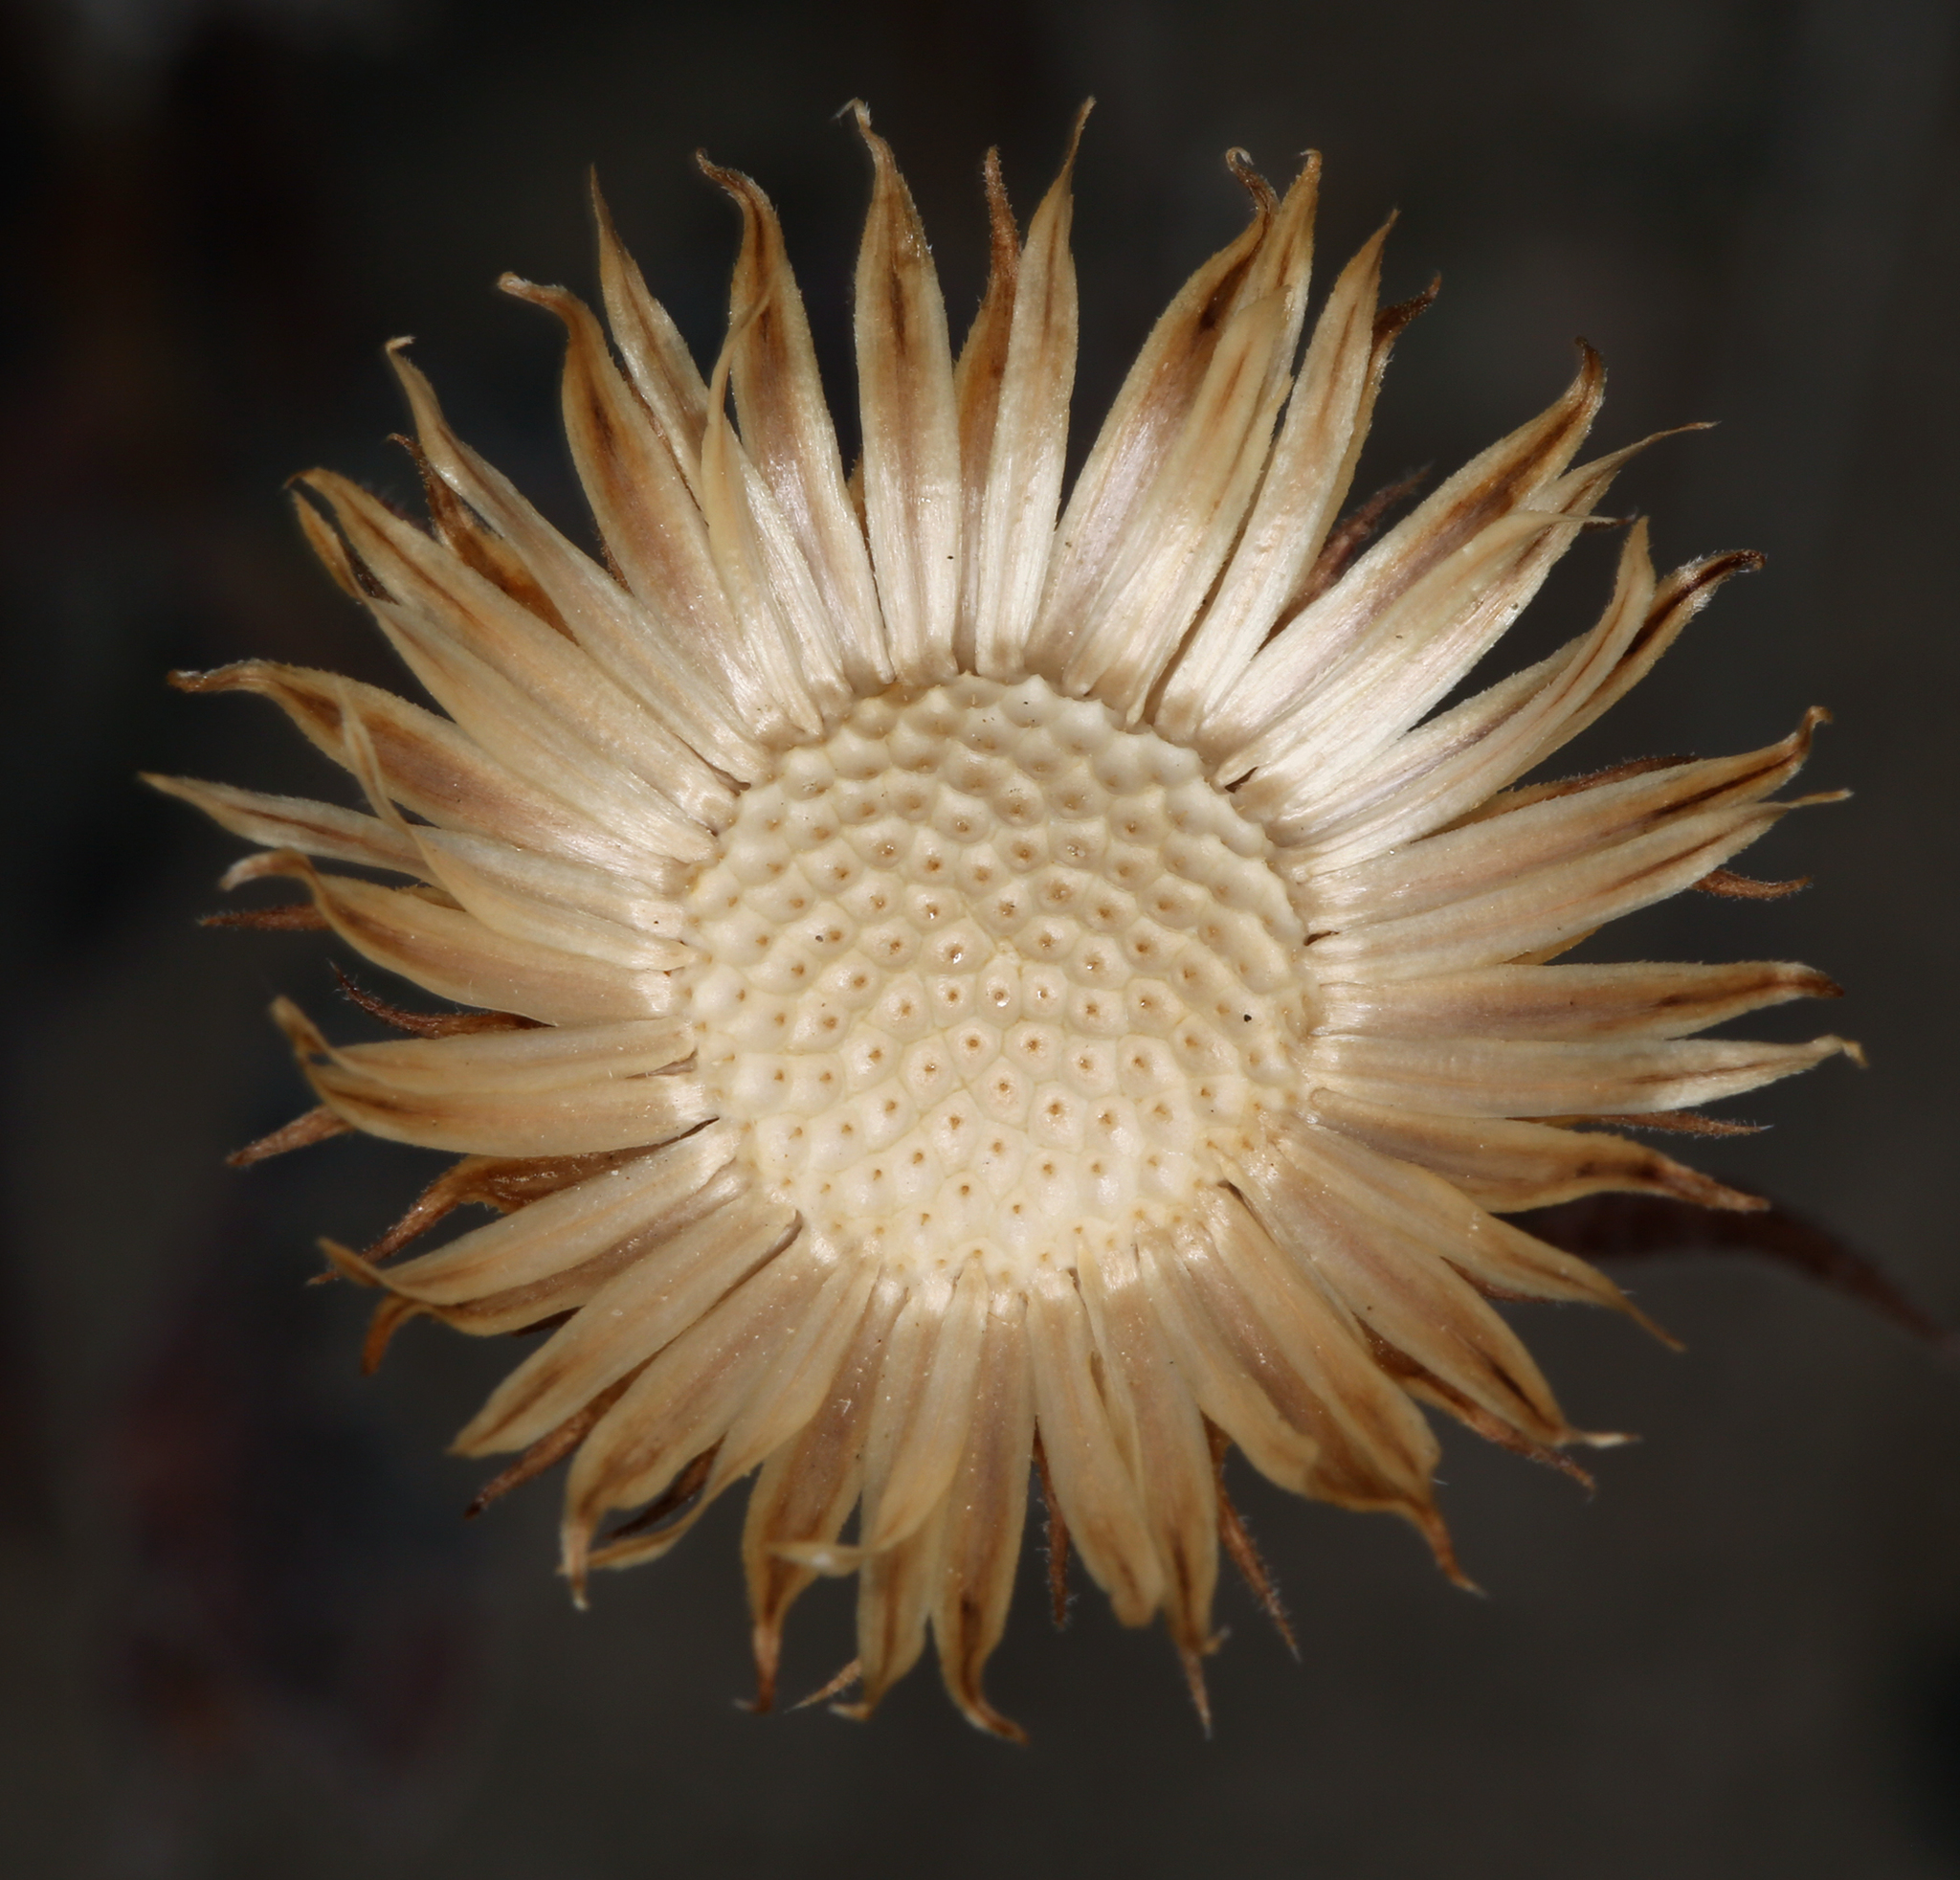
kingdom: Plantae
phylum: Tracheophyta
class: Magnoliopsida
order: Asterales
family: Asteraceae
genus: Xylorhiza
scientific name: Xylorhiza tortifolia
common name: Hurt-leaf woody-aster
